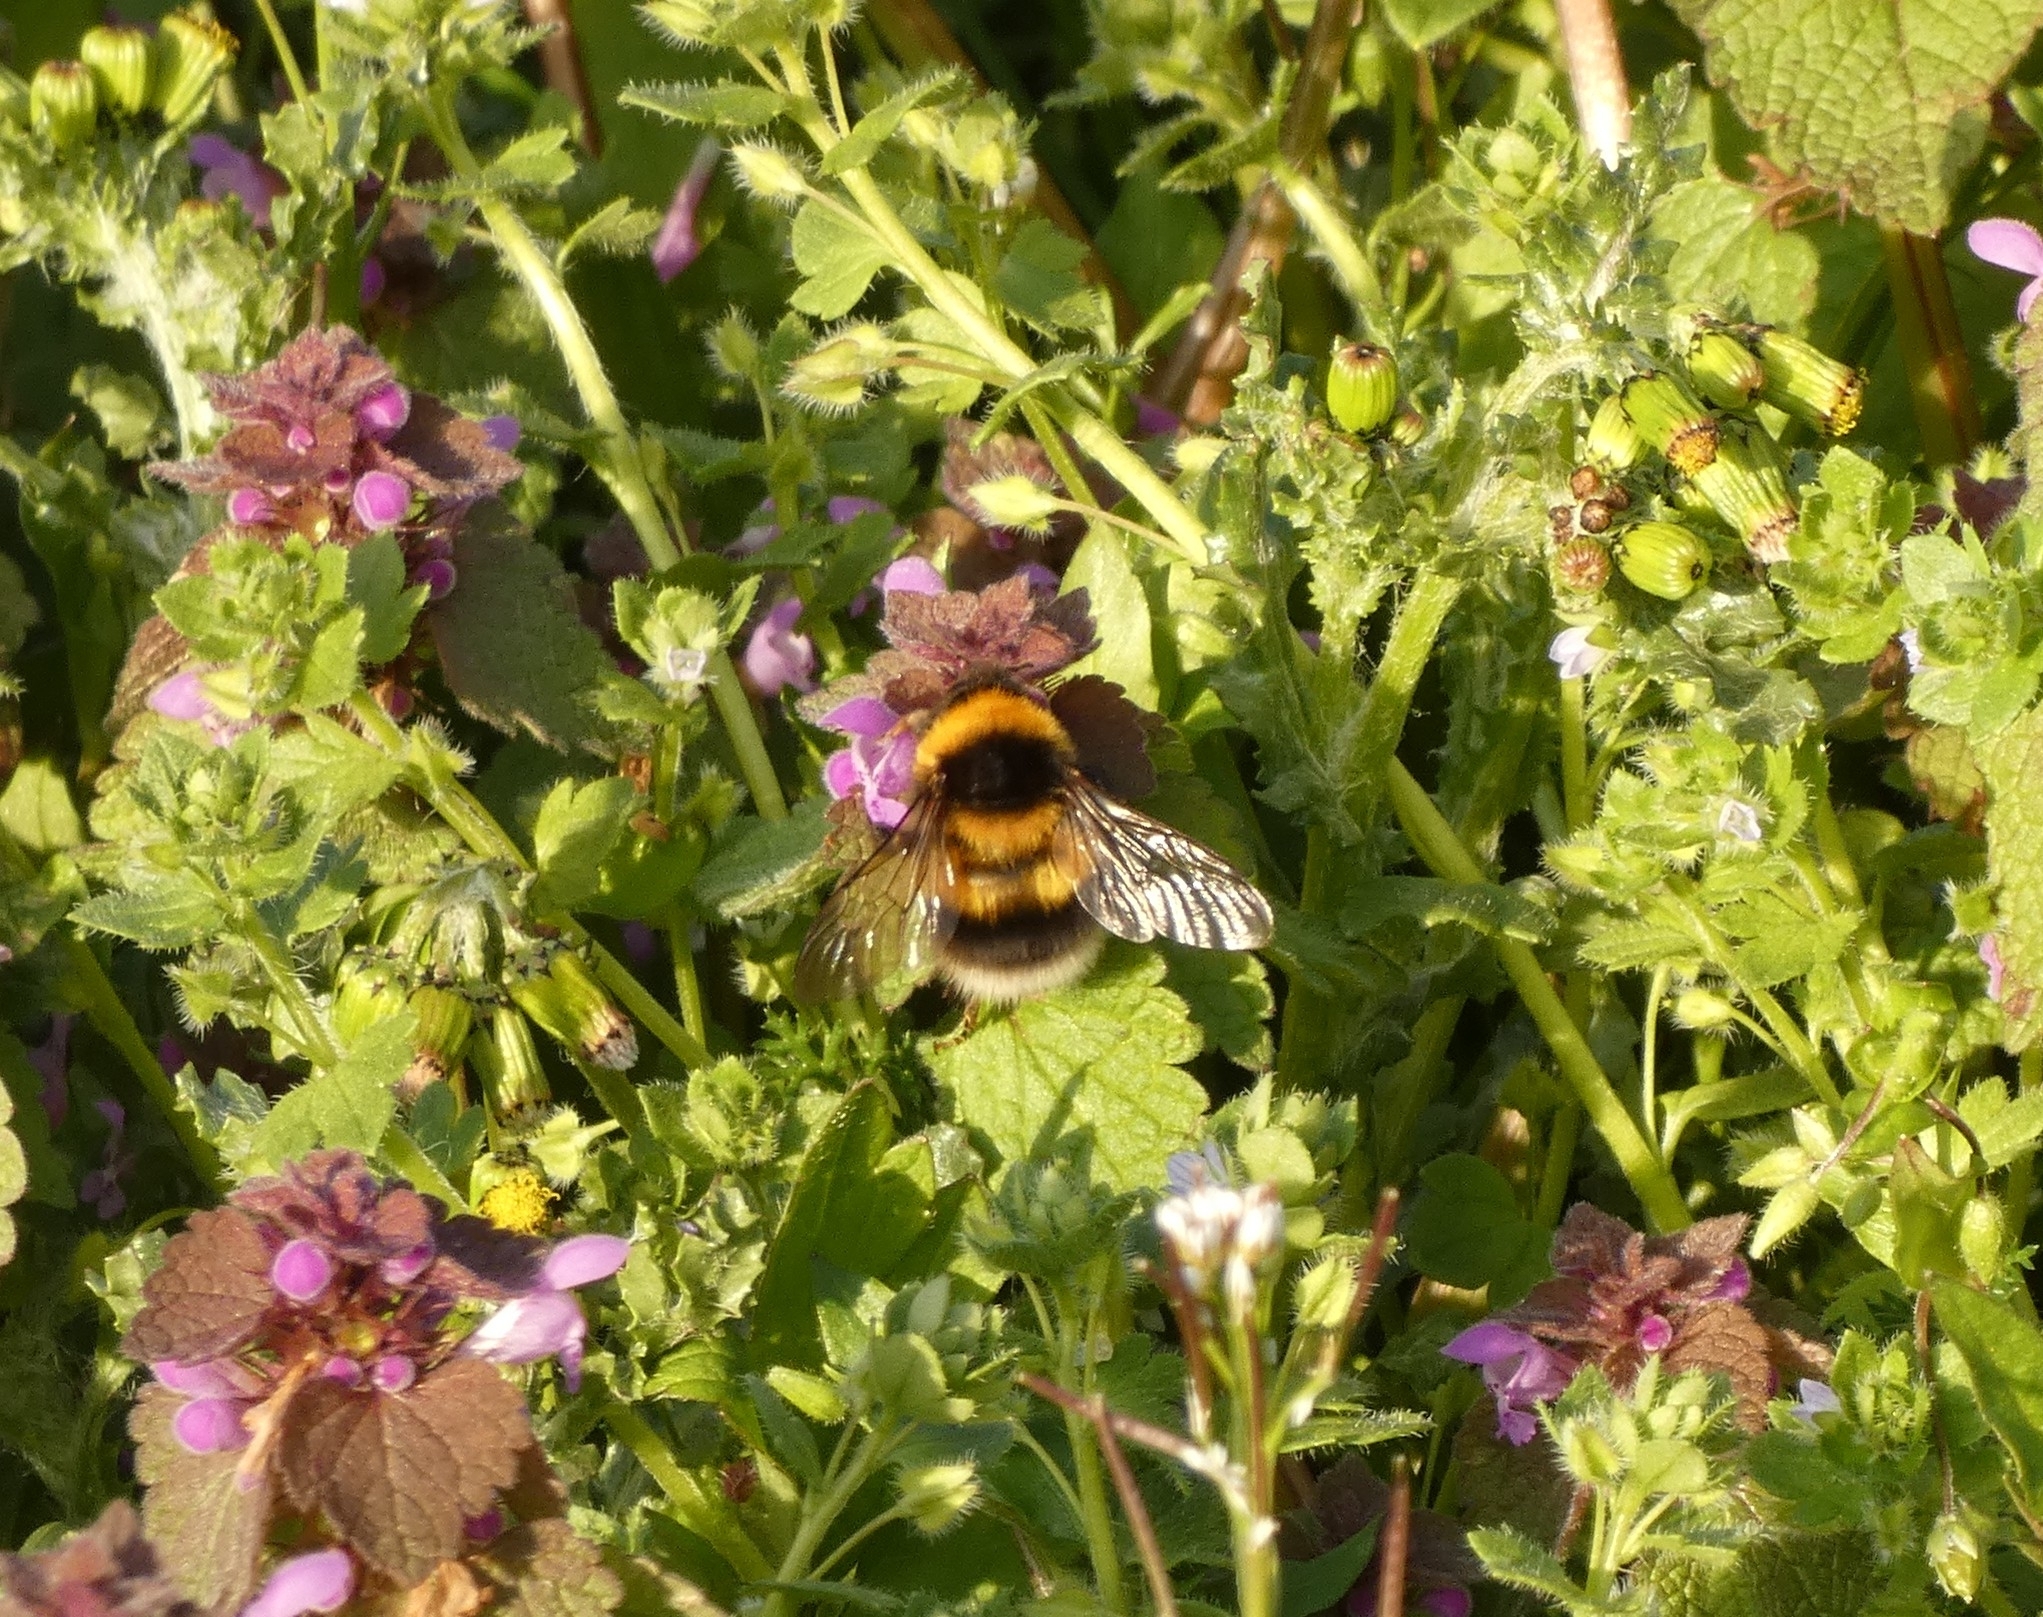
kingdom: Animalia
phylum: Arthropoda
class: Insecta
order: Hymenoptera
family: Apidae
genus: Bombus
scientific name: Bombus hortorum
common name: Garden bumblebee
